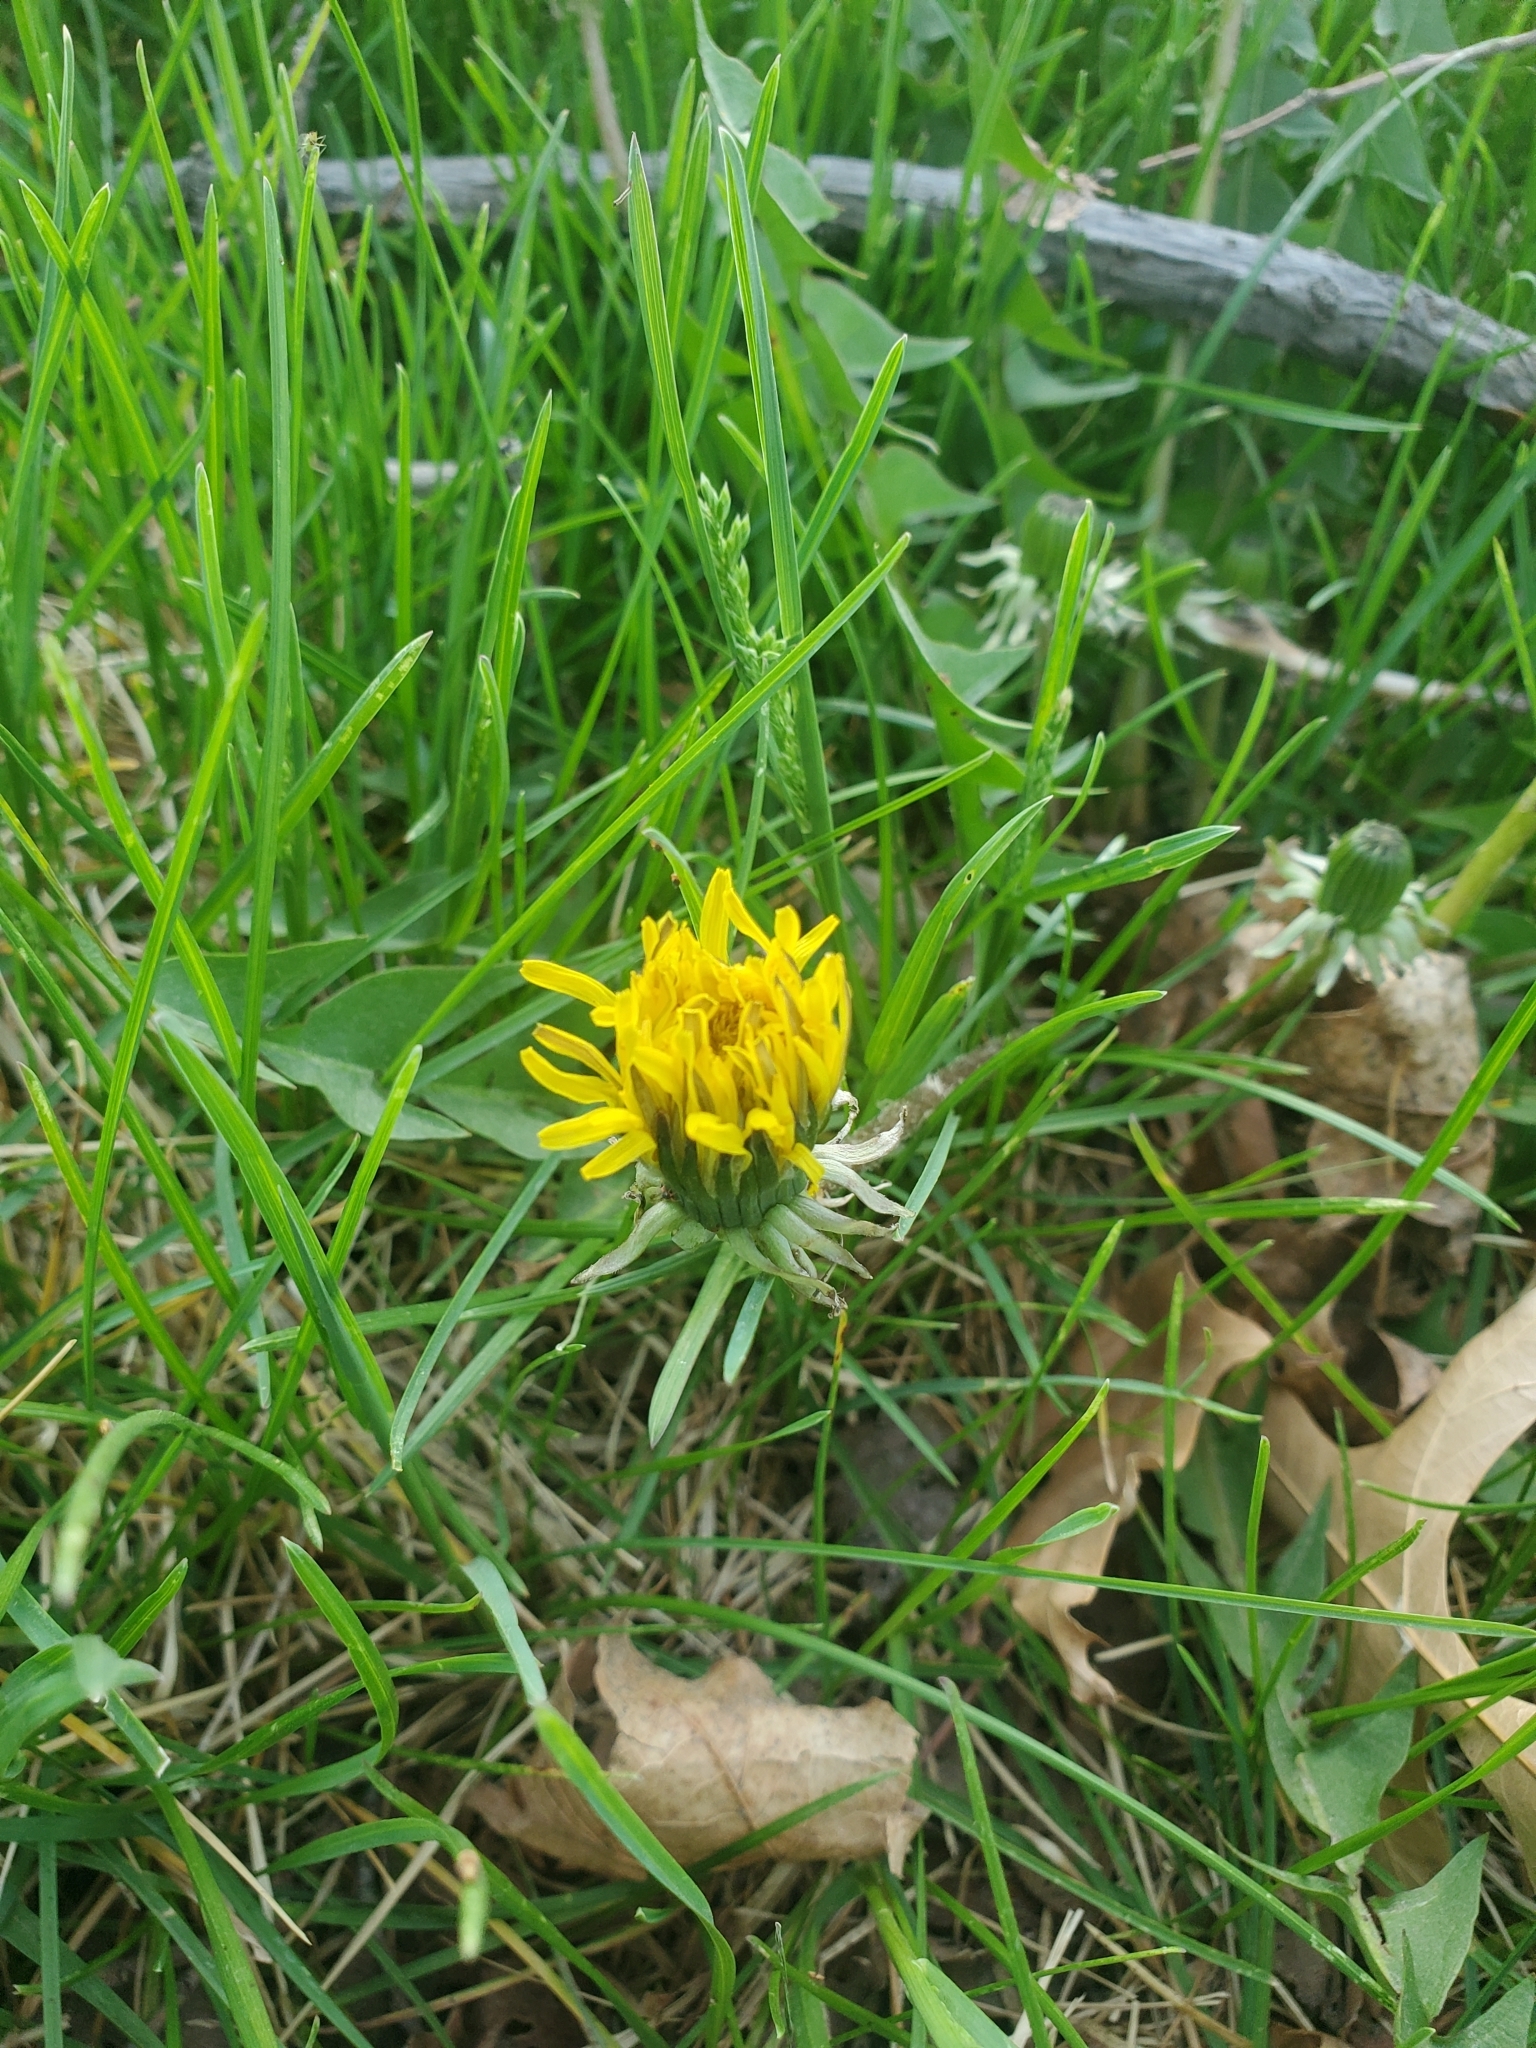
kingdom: Plantae
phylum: Tracheophyta
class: Magnoliopsida
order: Asterales
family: Asteraceae
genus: Taraxacum
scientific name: Taraxacum
